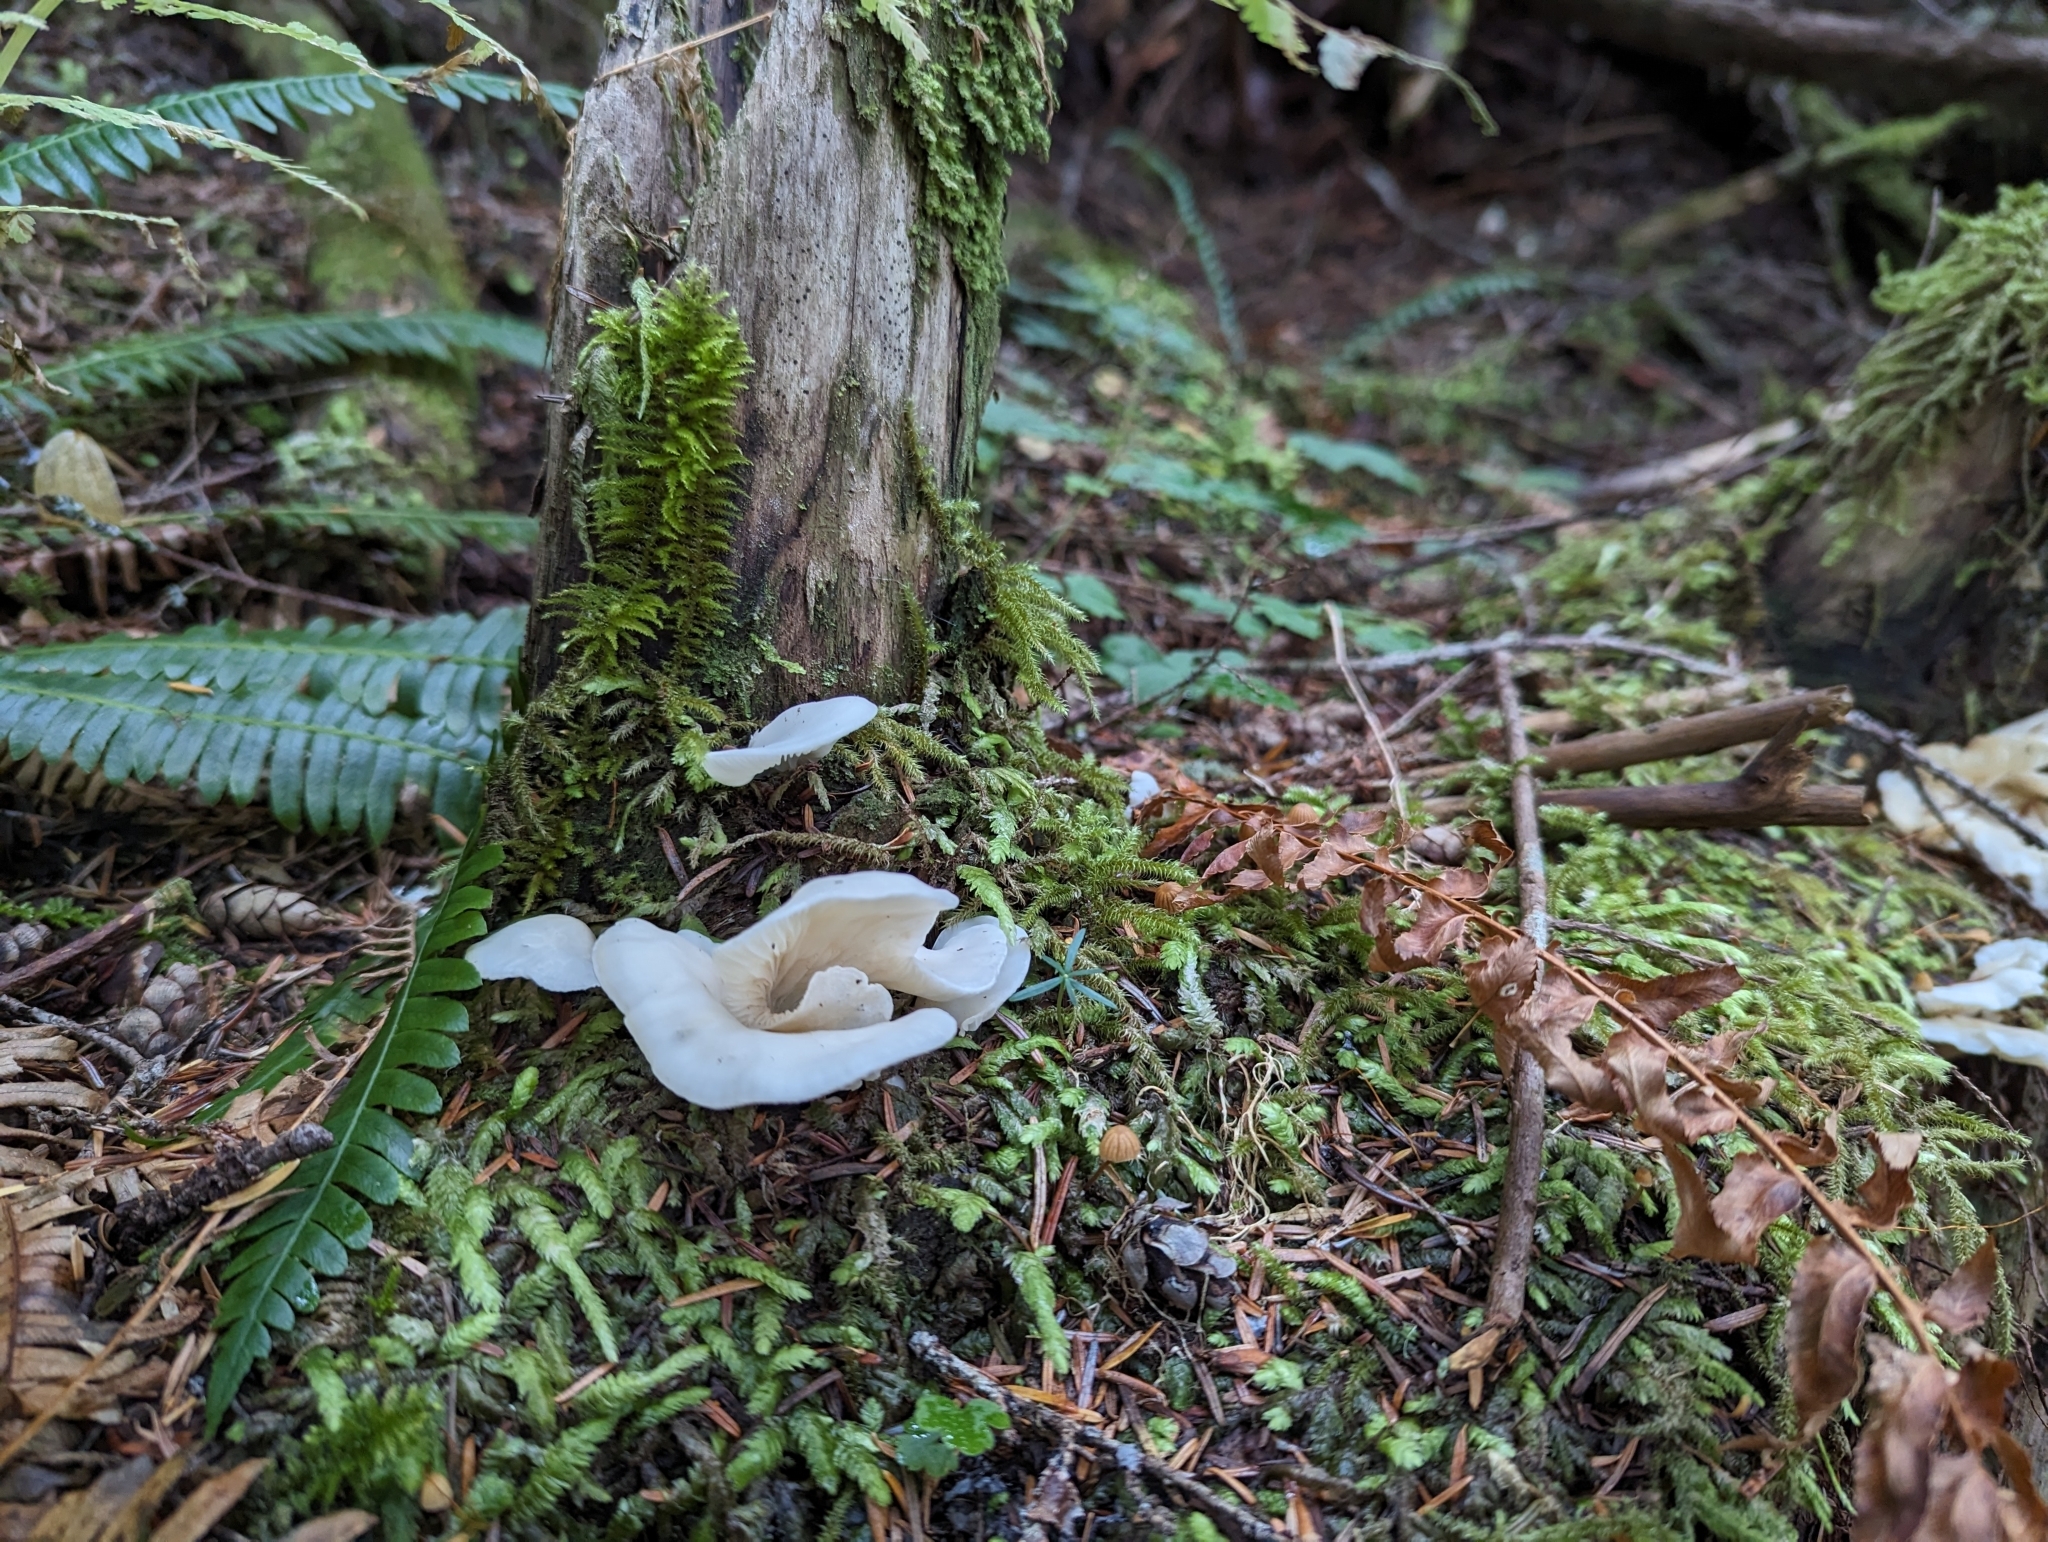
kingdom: Fungi
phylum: Basidiomycota
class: Agaricomycetes
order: Agaricales
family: Marasmiaceae
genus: Pleurocybella
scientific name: Pleurocybella porrigens
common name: Angel's wings
